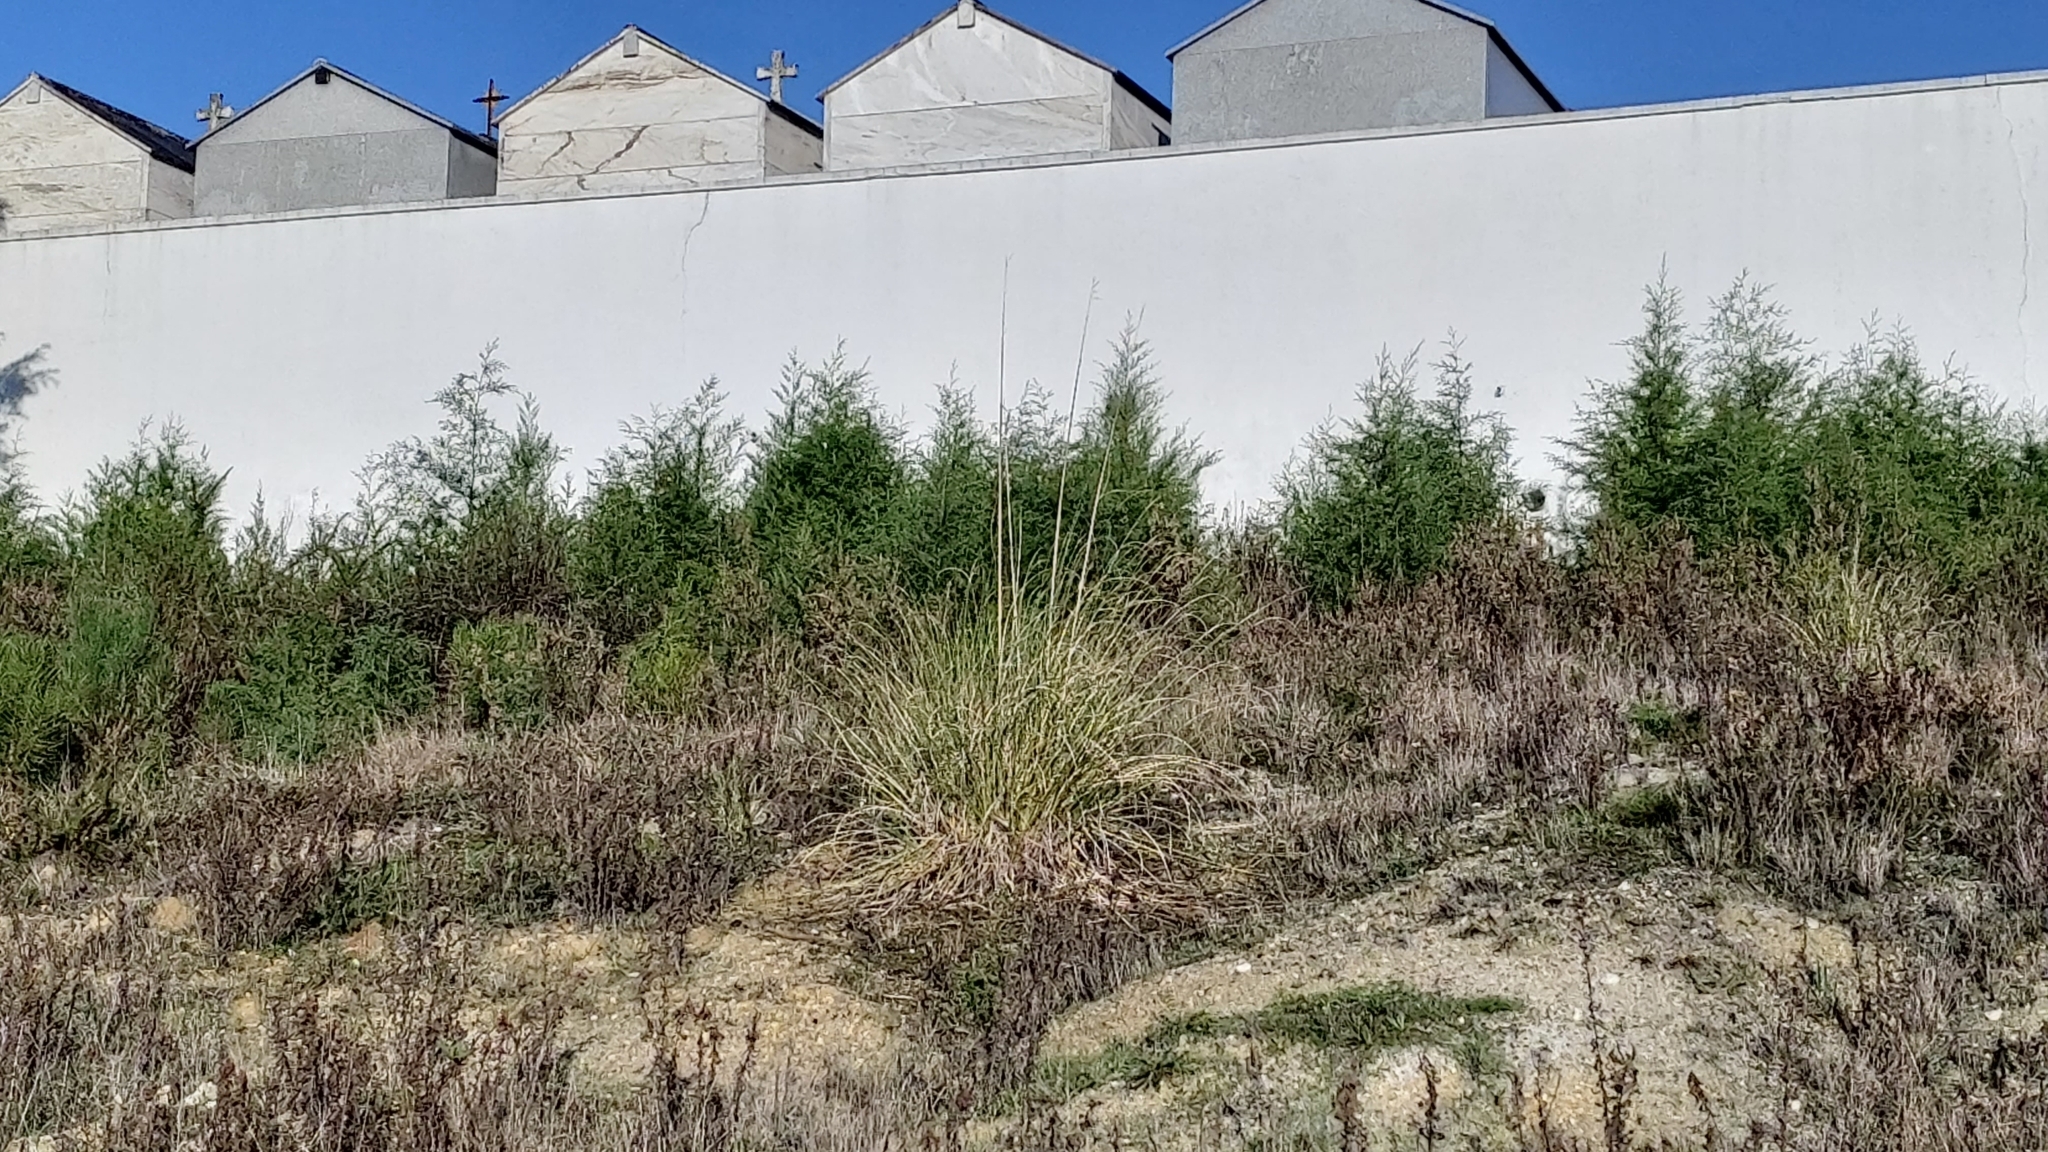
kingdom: Plantae
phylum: Tracheophyta
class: Liliopsida
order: Poales
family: Poaceae
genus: Cortaderia
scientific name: Cortaderia selloana
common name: Uruguayan pampas grass
